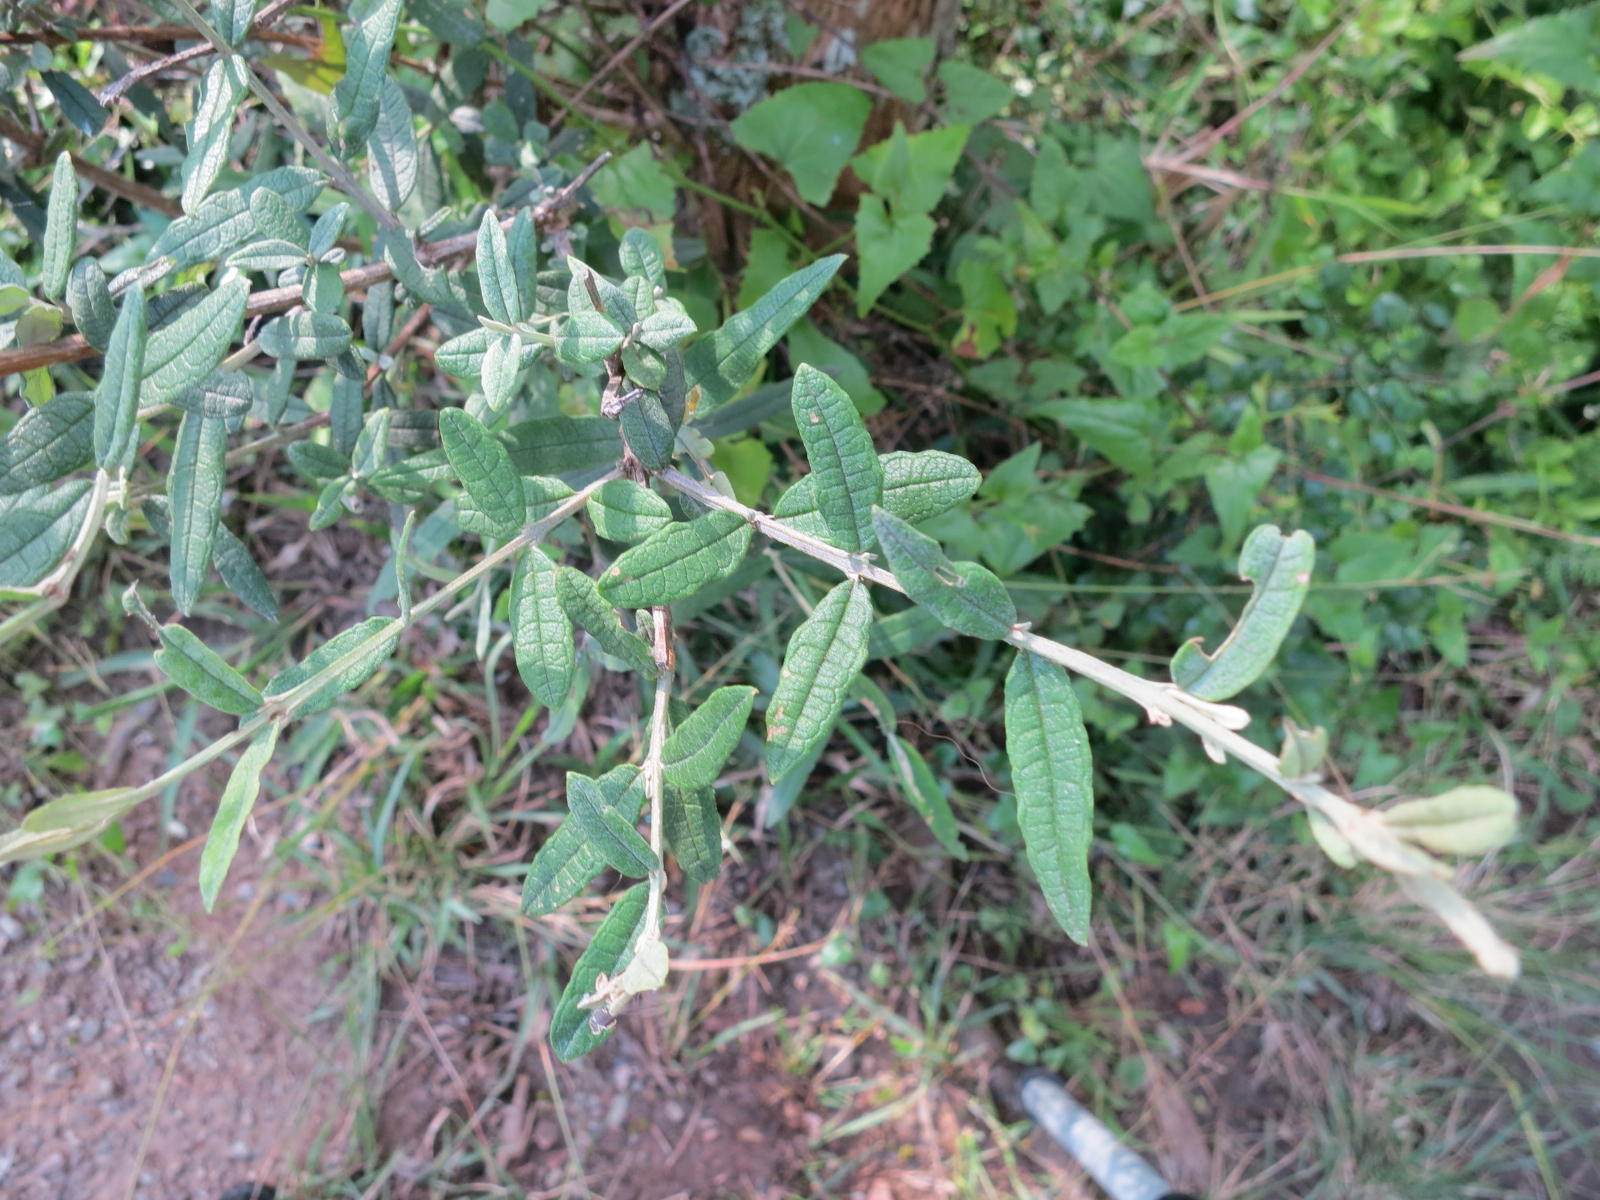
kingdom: Plantae
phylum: Tracheophyta
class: Magnoliopsida
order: Lamiales
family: Scrophulariaceae
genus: Buddleja
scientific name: Buddleja saligna
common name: False olive
